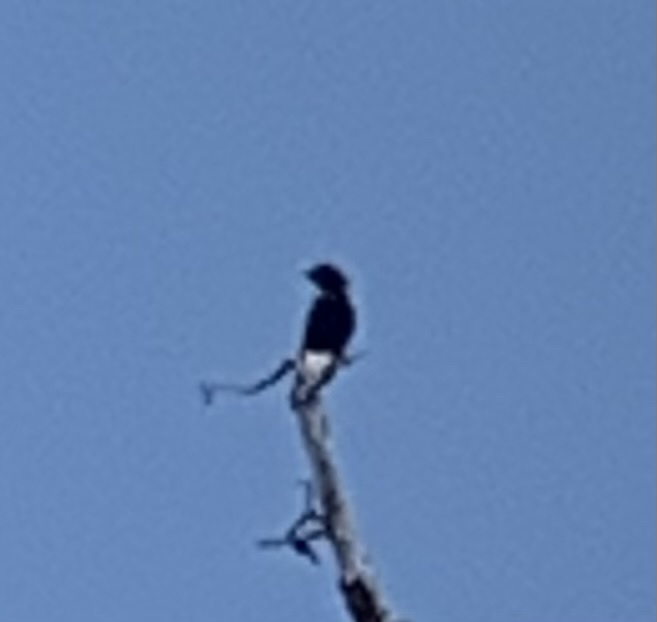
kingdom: Animalia
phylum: Chordata
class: Aves
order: Passeriformes
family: Corvidae
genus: Corvus
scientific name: Corvus ossifragus
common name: Fish crow
